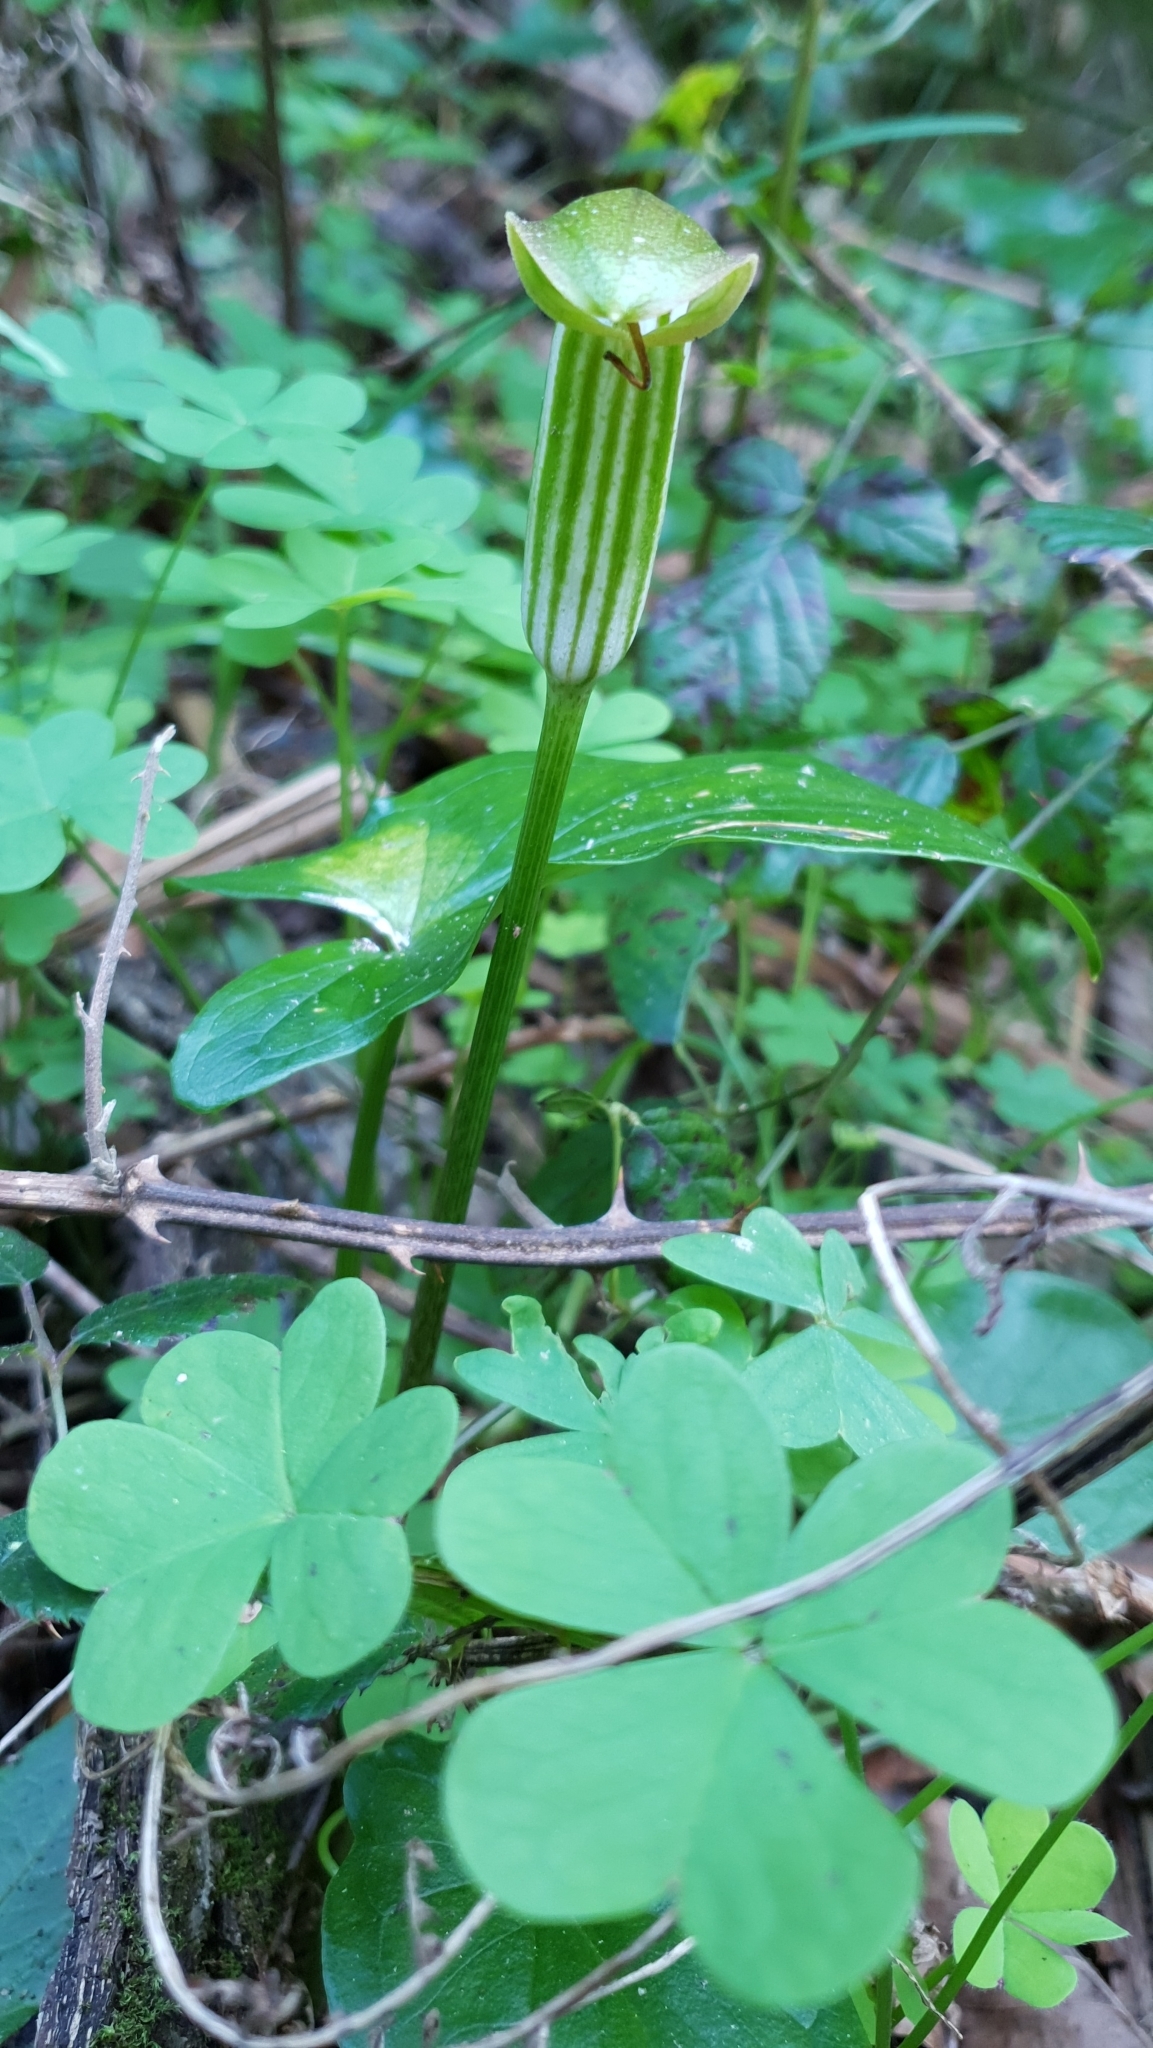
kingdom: Plantae
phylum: Tracheophyta
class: Liliopsida
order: Alismatales
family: Araceae
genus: Arisarum
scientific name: Arisarum vulgare
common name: Common arisarum
